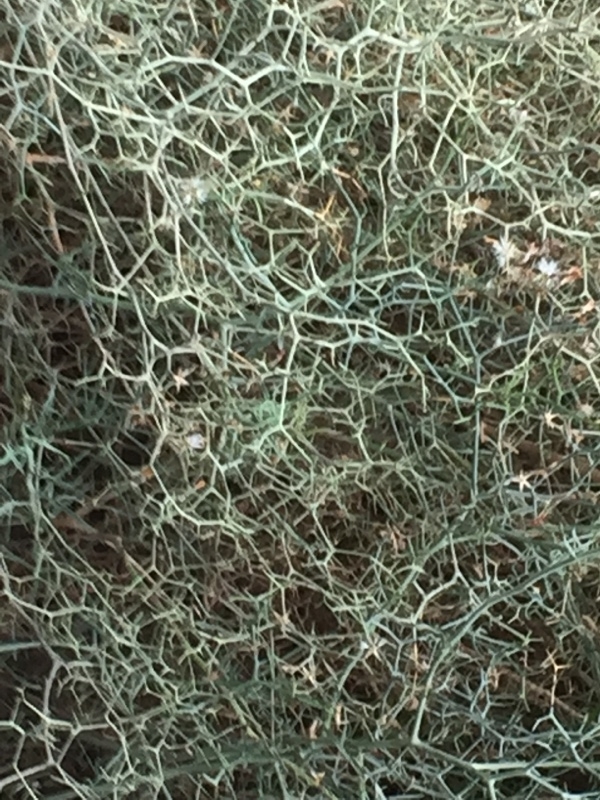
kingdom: Plantae
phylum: Tracheophyta
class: Magnoliopsida
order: Asterales
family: Asteraceae
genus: Launaea
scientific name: Launaea arborescens
